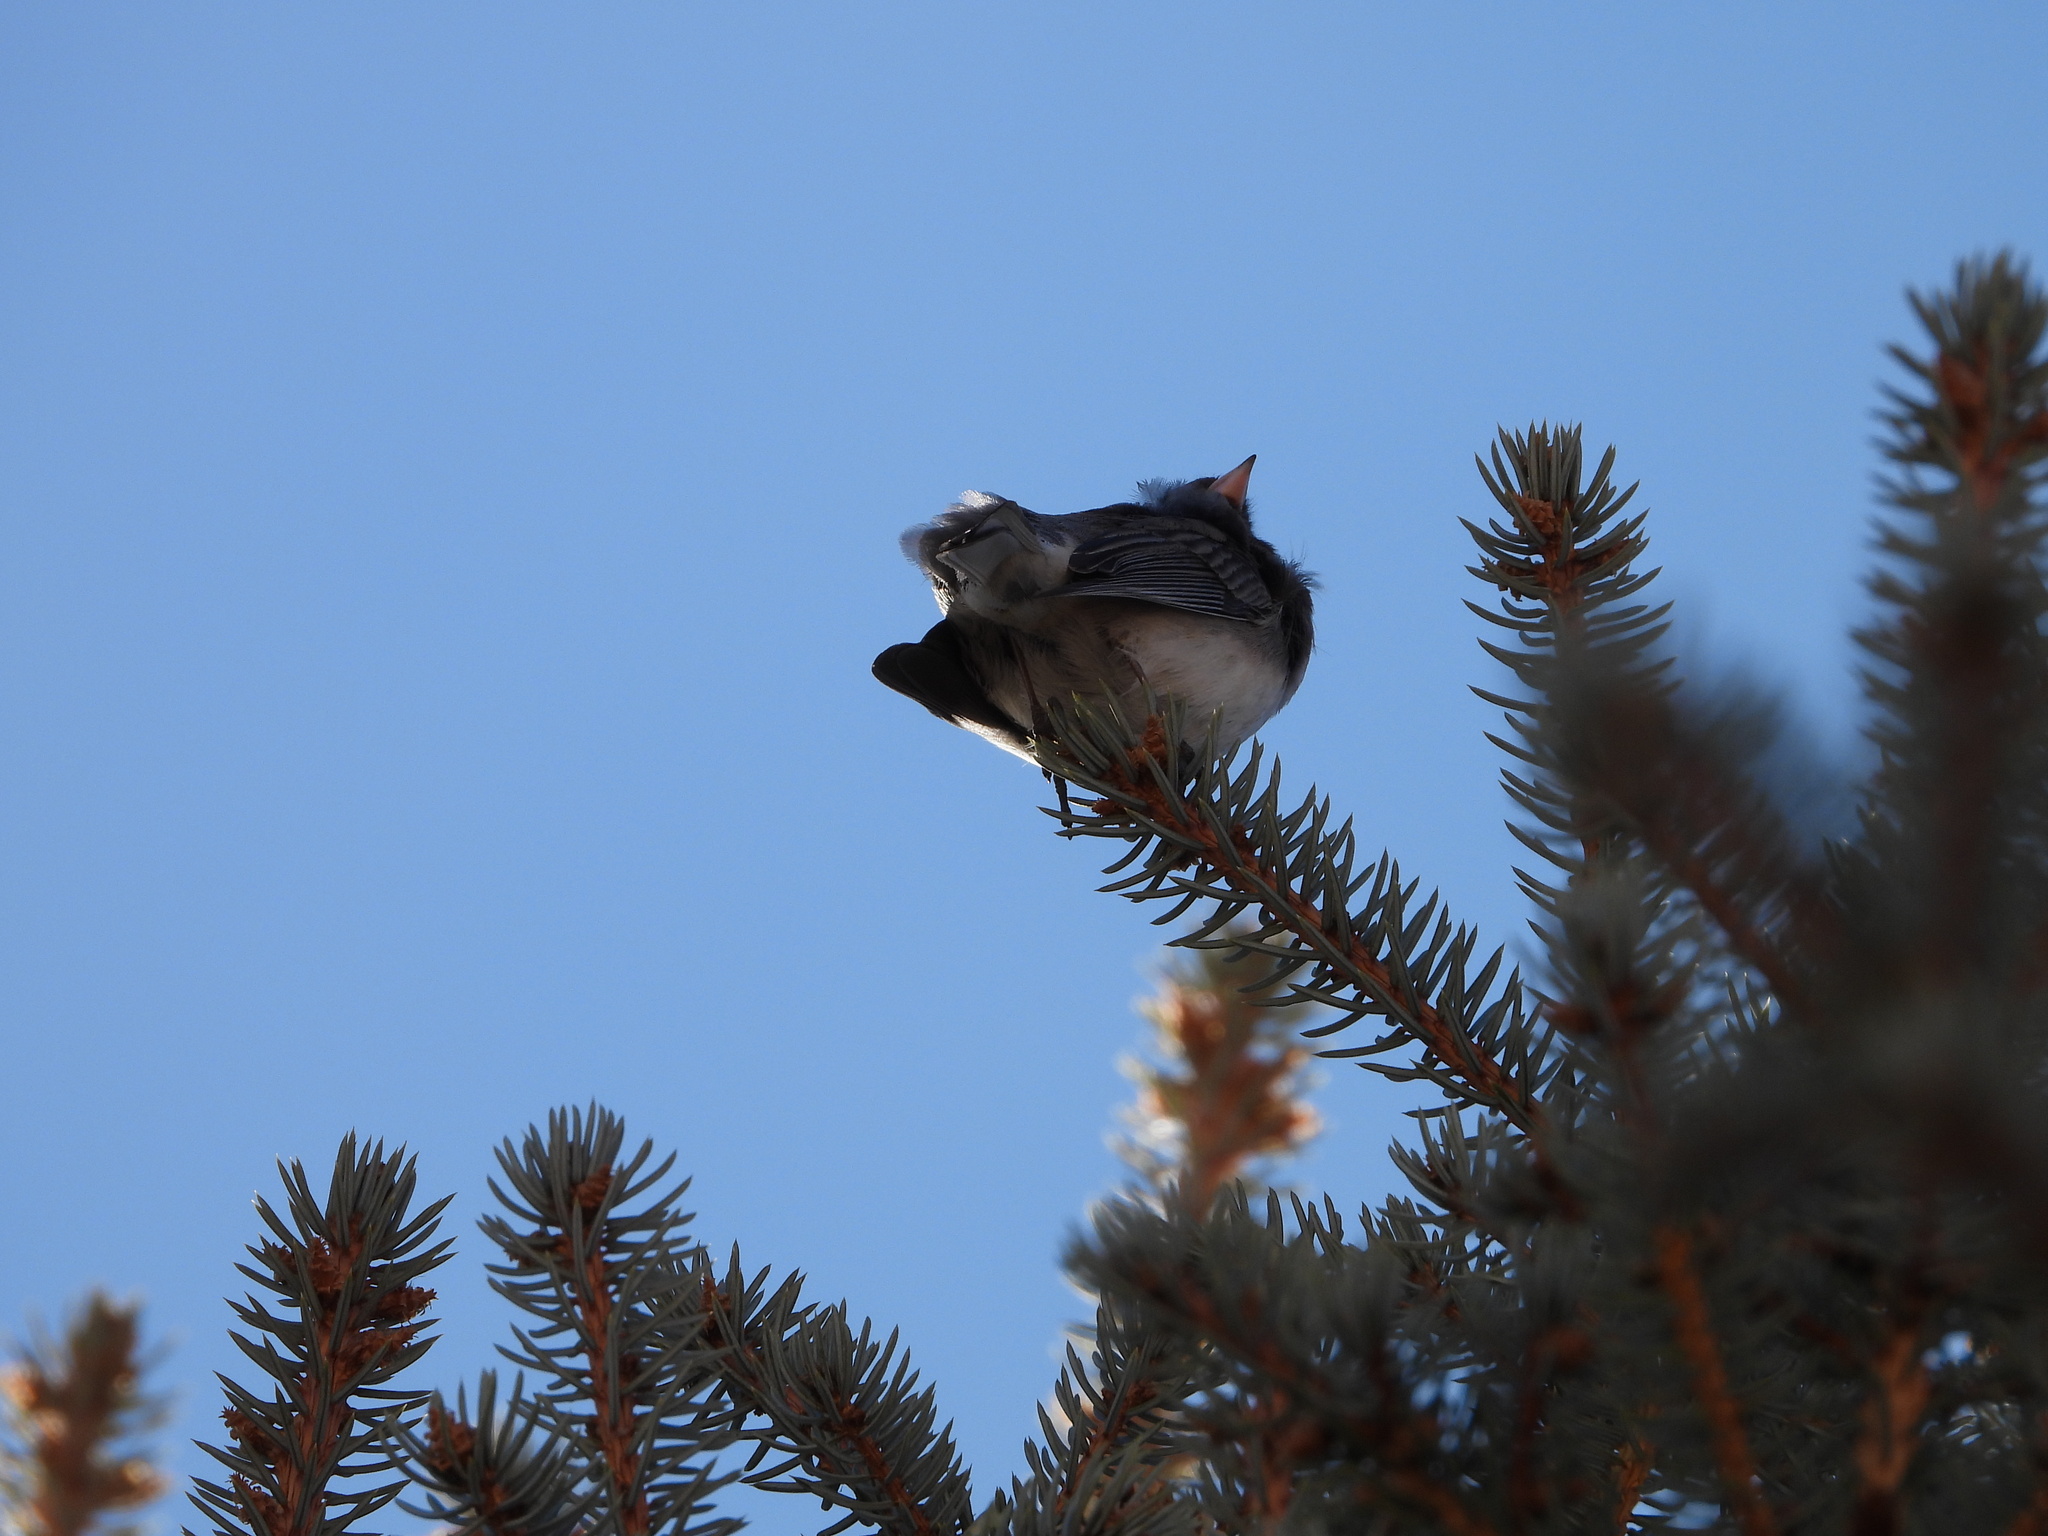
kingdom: Animalia
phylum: Chordata
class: Aves
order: Passeriformes
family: Passerellidae
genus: Junco
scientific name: Junco hyemalis
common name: Dark-eyed junco
